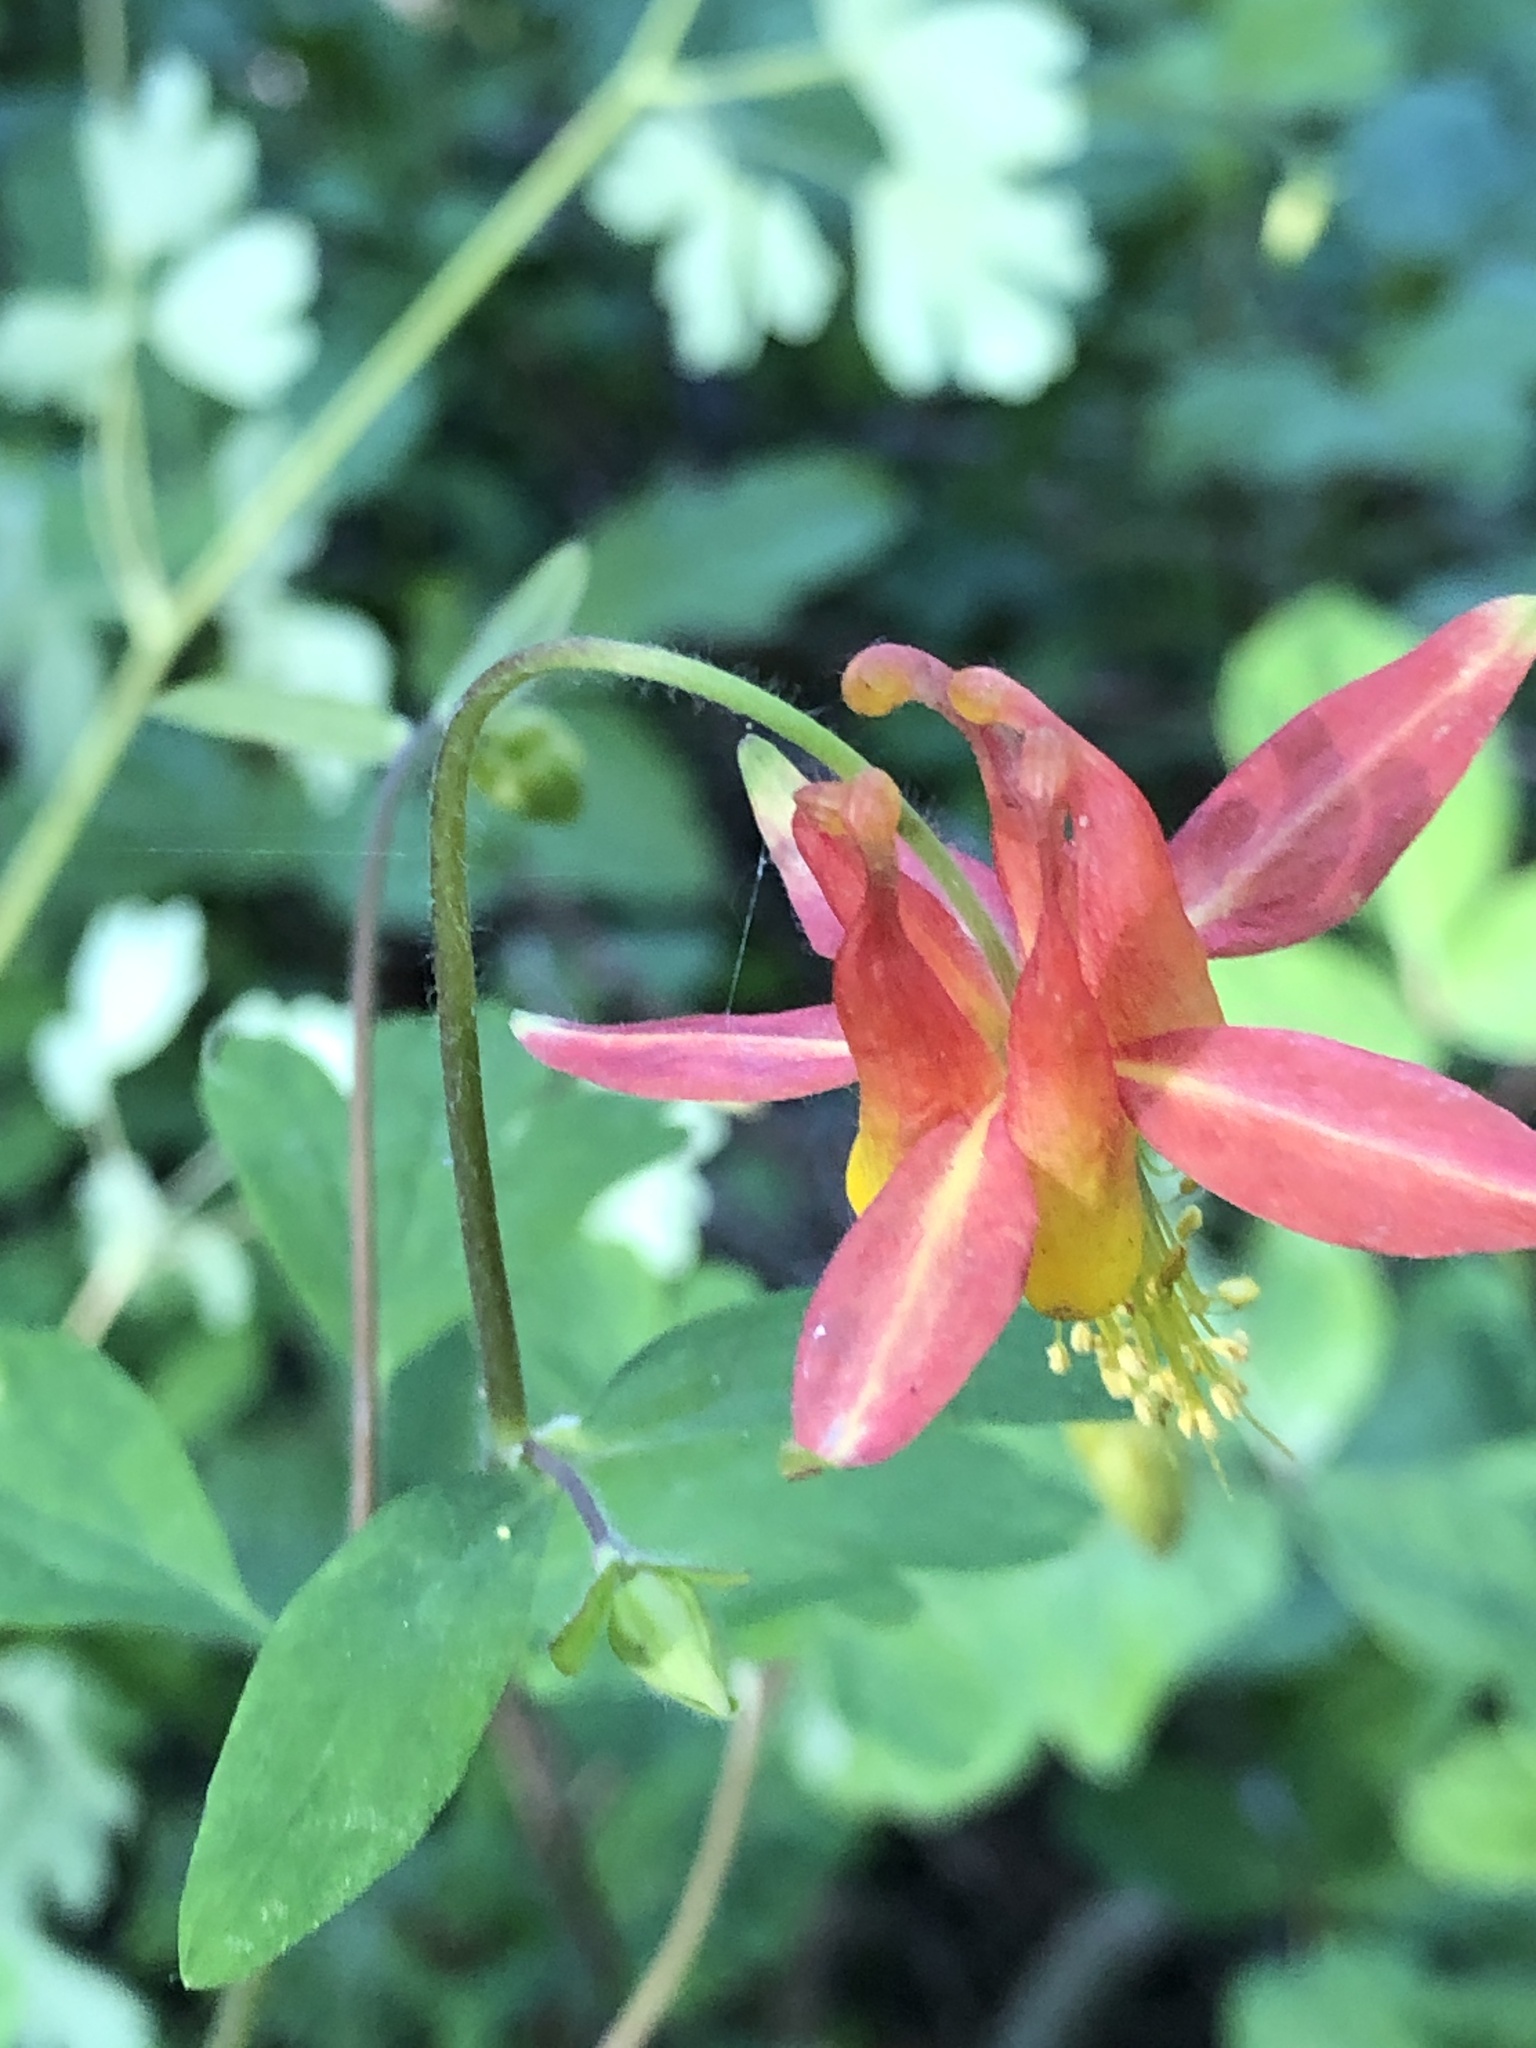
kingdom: Plantae
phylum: Tracheophyta
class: Magnoliopsida
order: Ranunculales
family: Ranunculaceae
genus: Aquilegia
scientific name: Aquilegia formosa
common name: Sitka columbine
